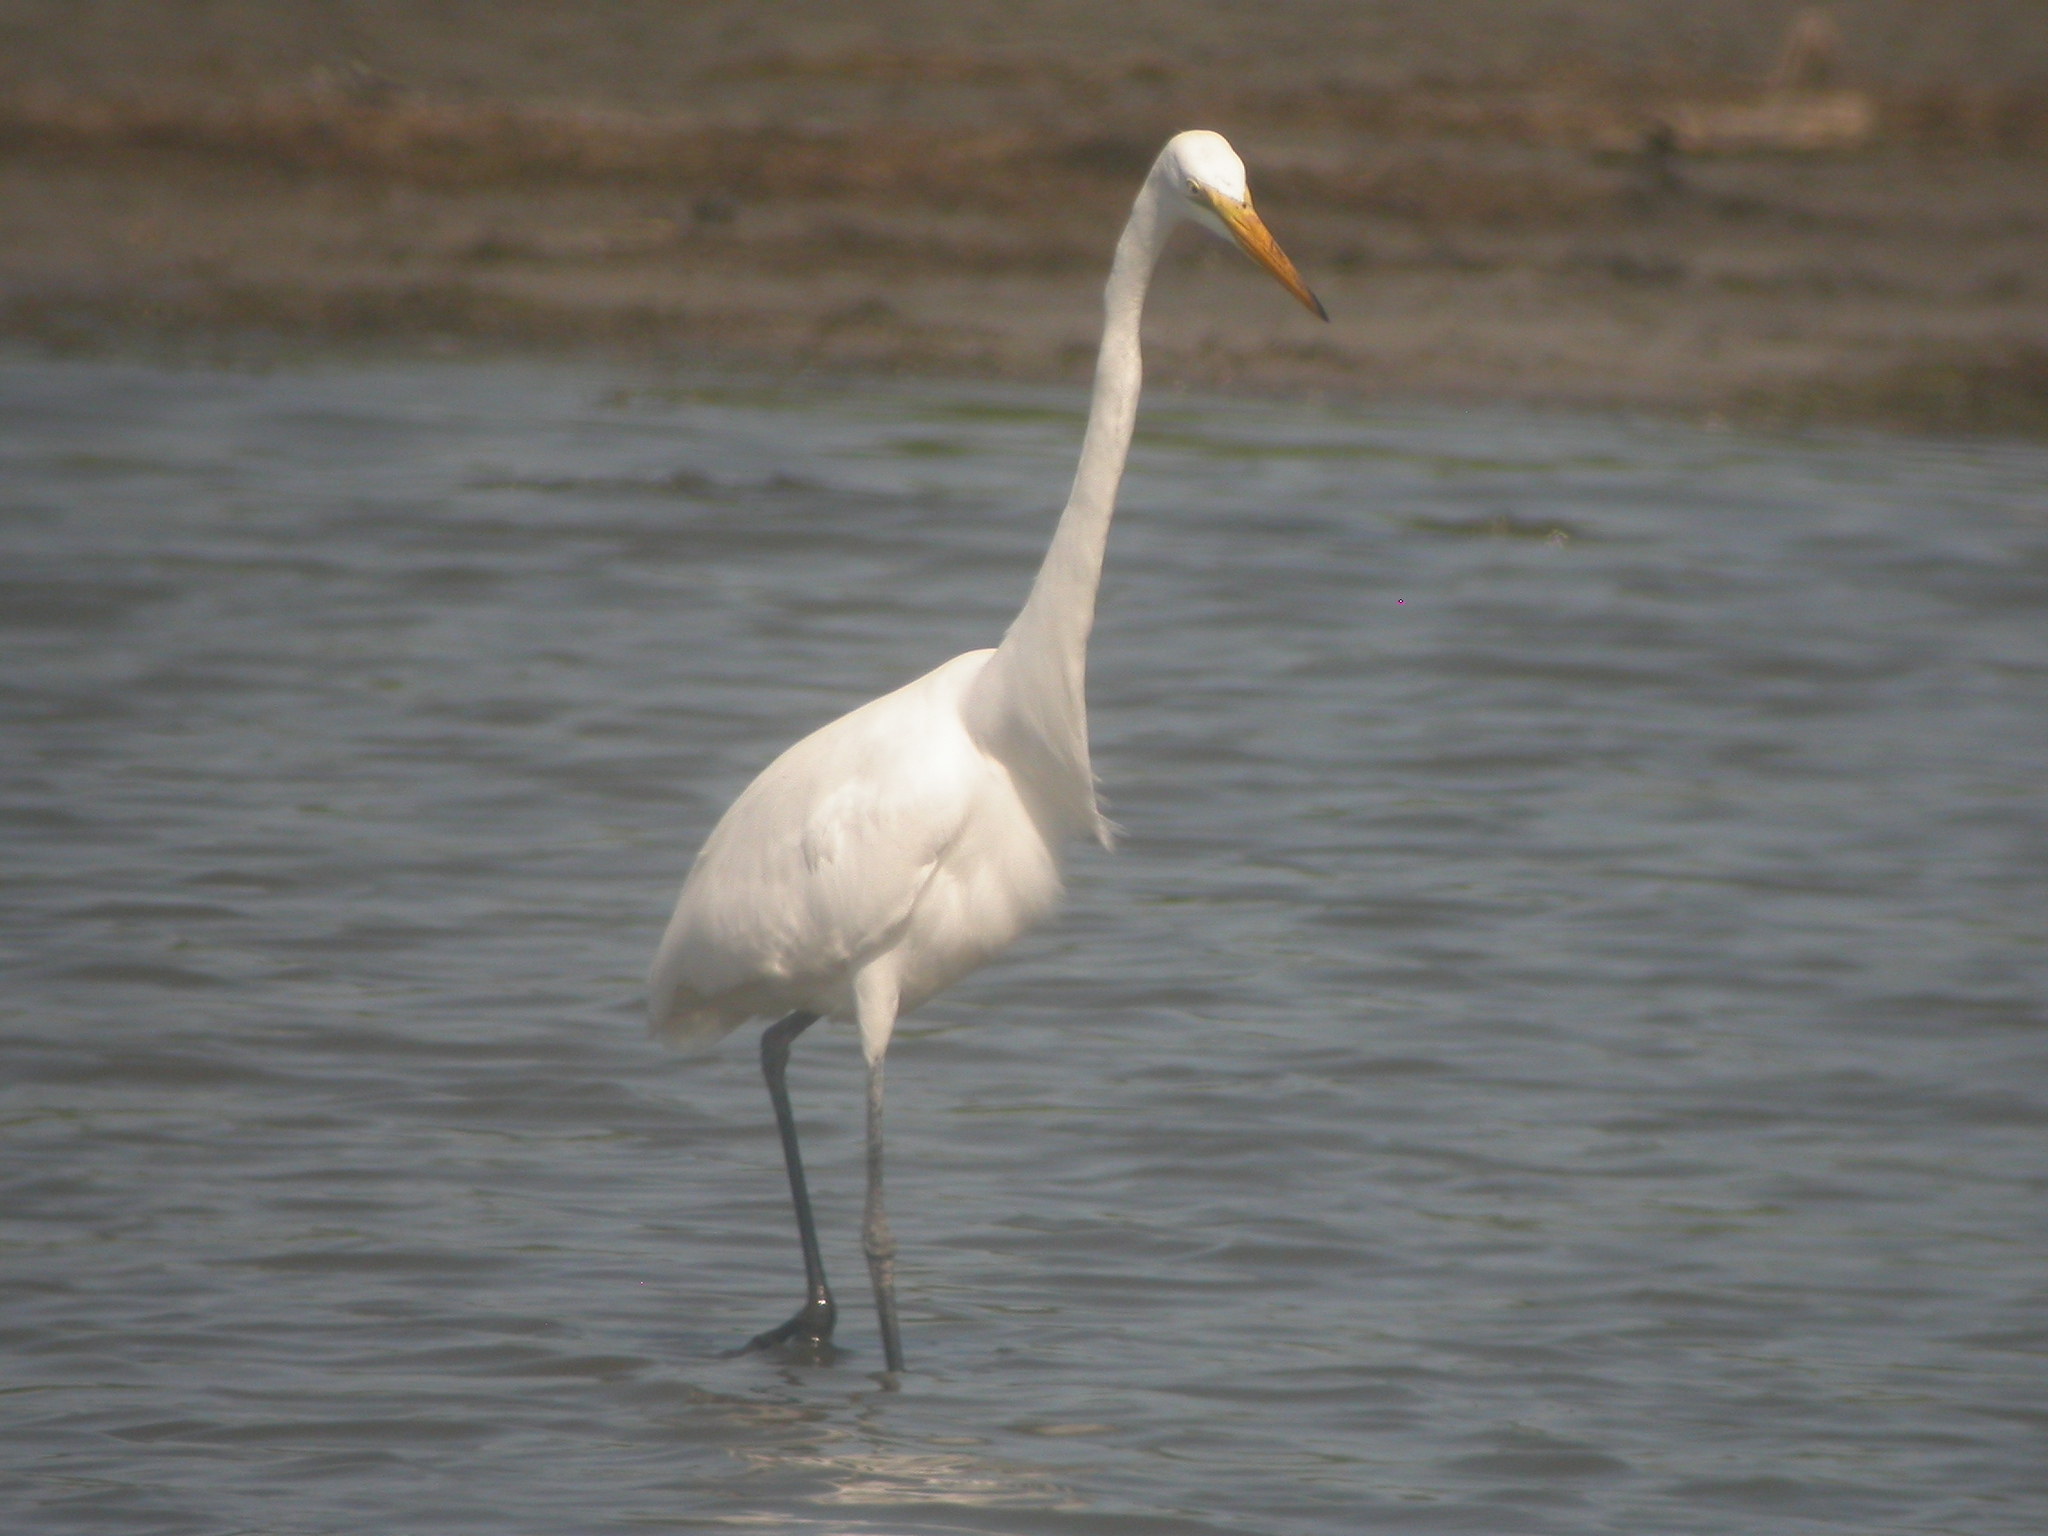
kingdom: Animalia
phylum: Chordata
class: Aves
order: Pelecaniformes
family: Ardeidae
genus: Ardea
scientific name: Ardea alba
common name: Great egret
